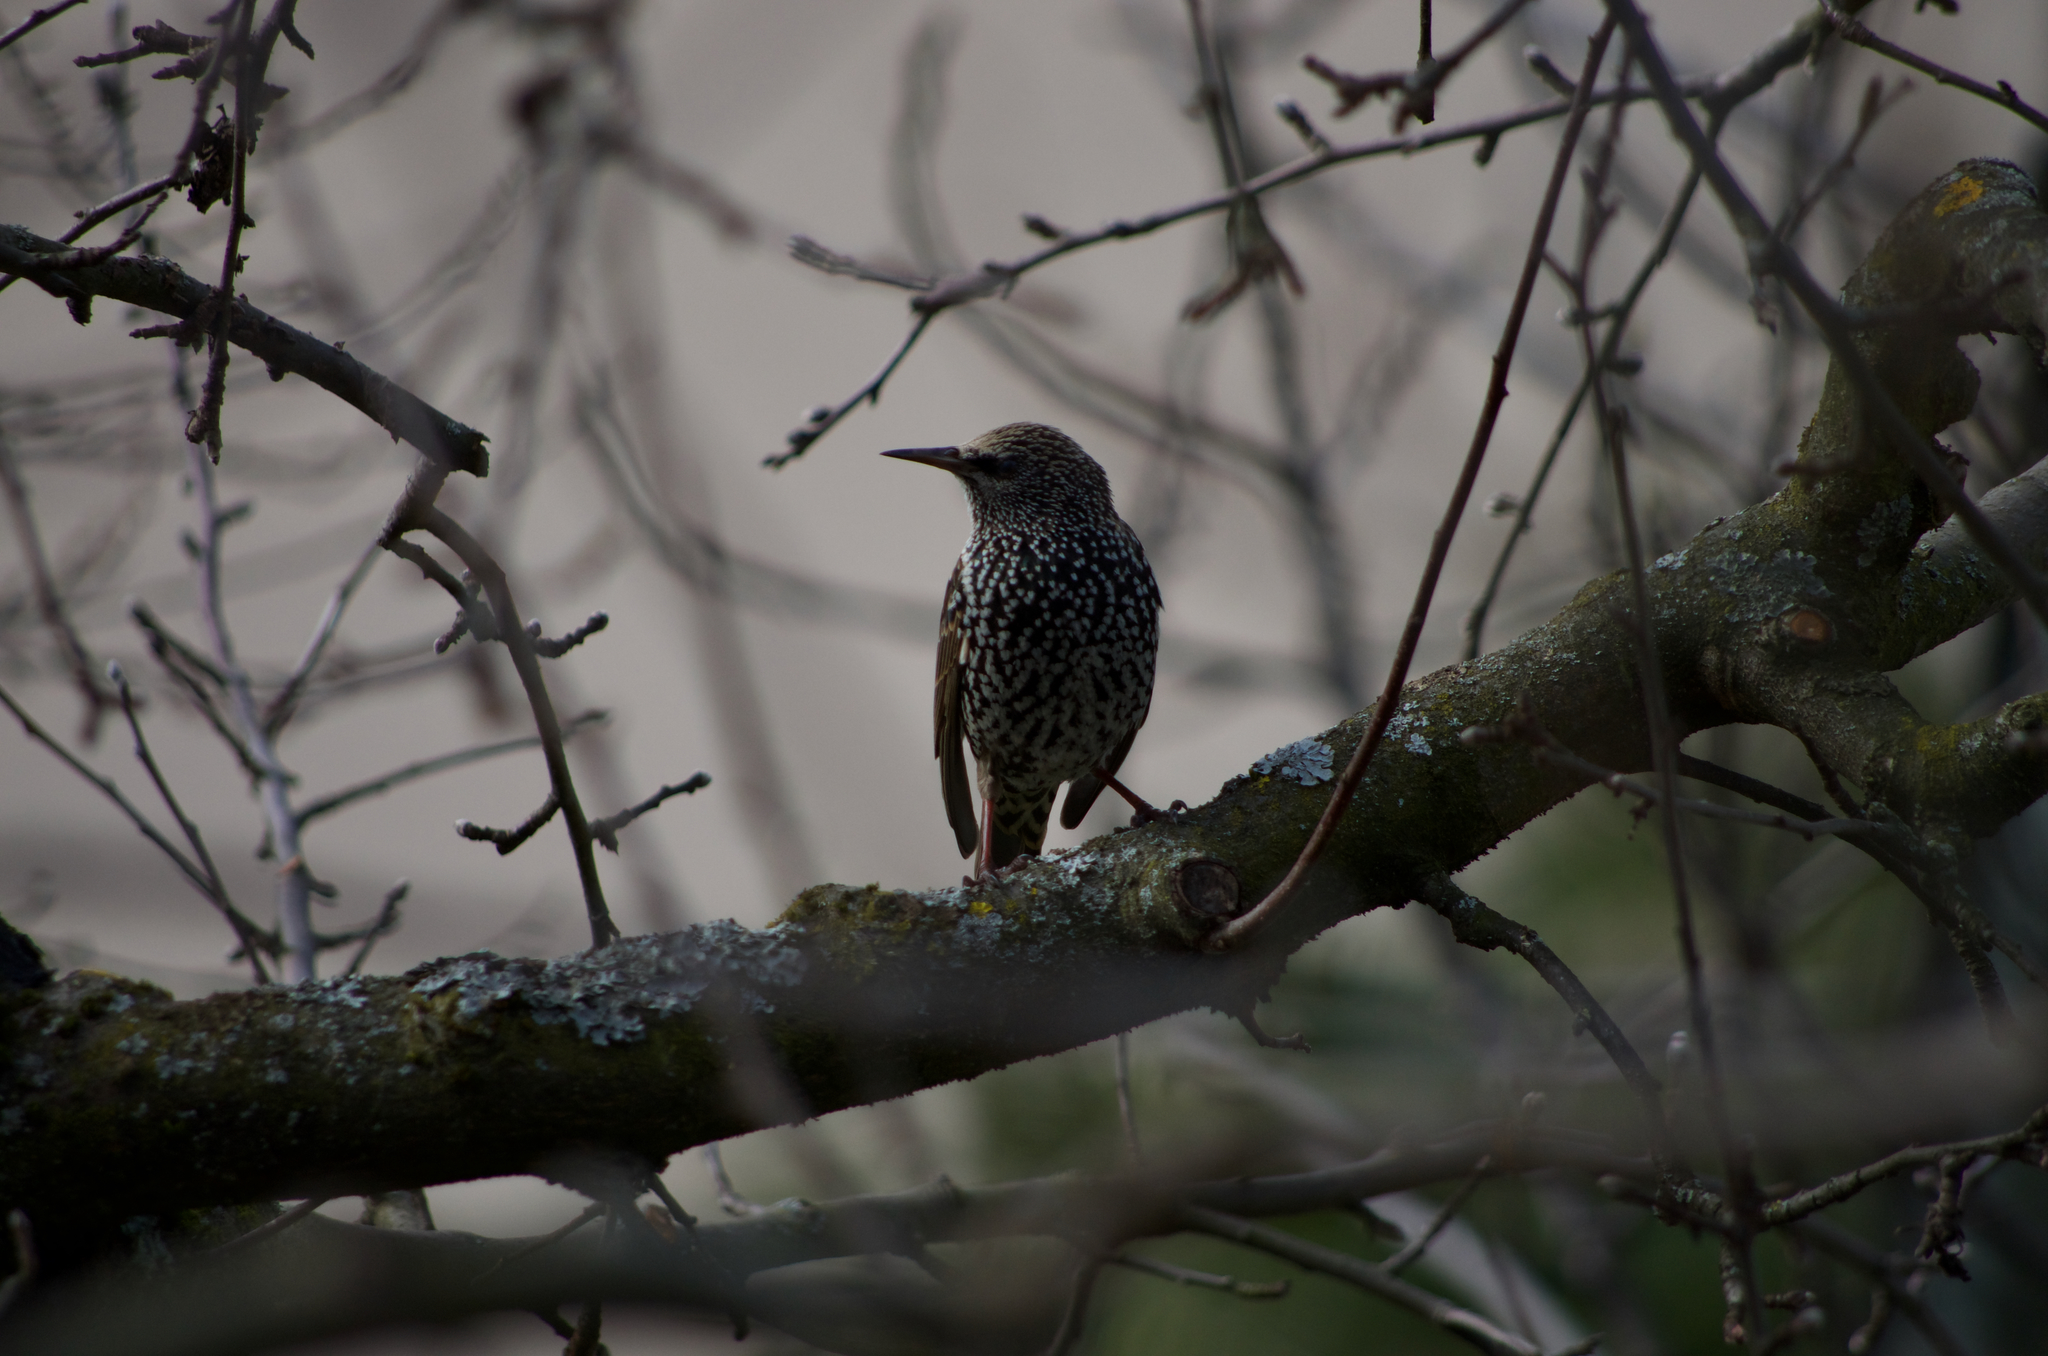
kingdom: Animalia
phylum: Chordata
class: Aves
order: Passeriformes
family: Sturnidae
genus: Sturnus
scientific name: Sturnus vulgaris
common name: Common starling
